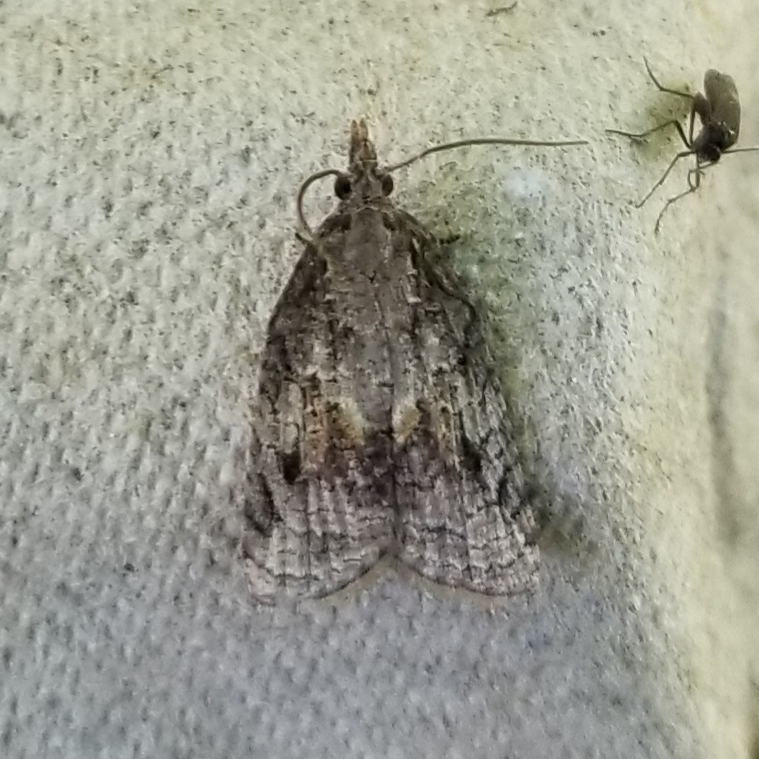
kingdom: Animalia
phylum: Arthropoda
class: Insecta
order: Lepidoptera
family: Tortricidae
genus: Platynota
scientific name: Platynota idaeusalis
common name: Tufted apple bud moth
